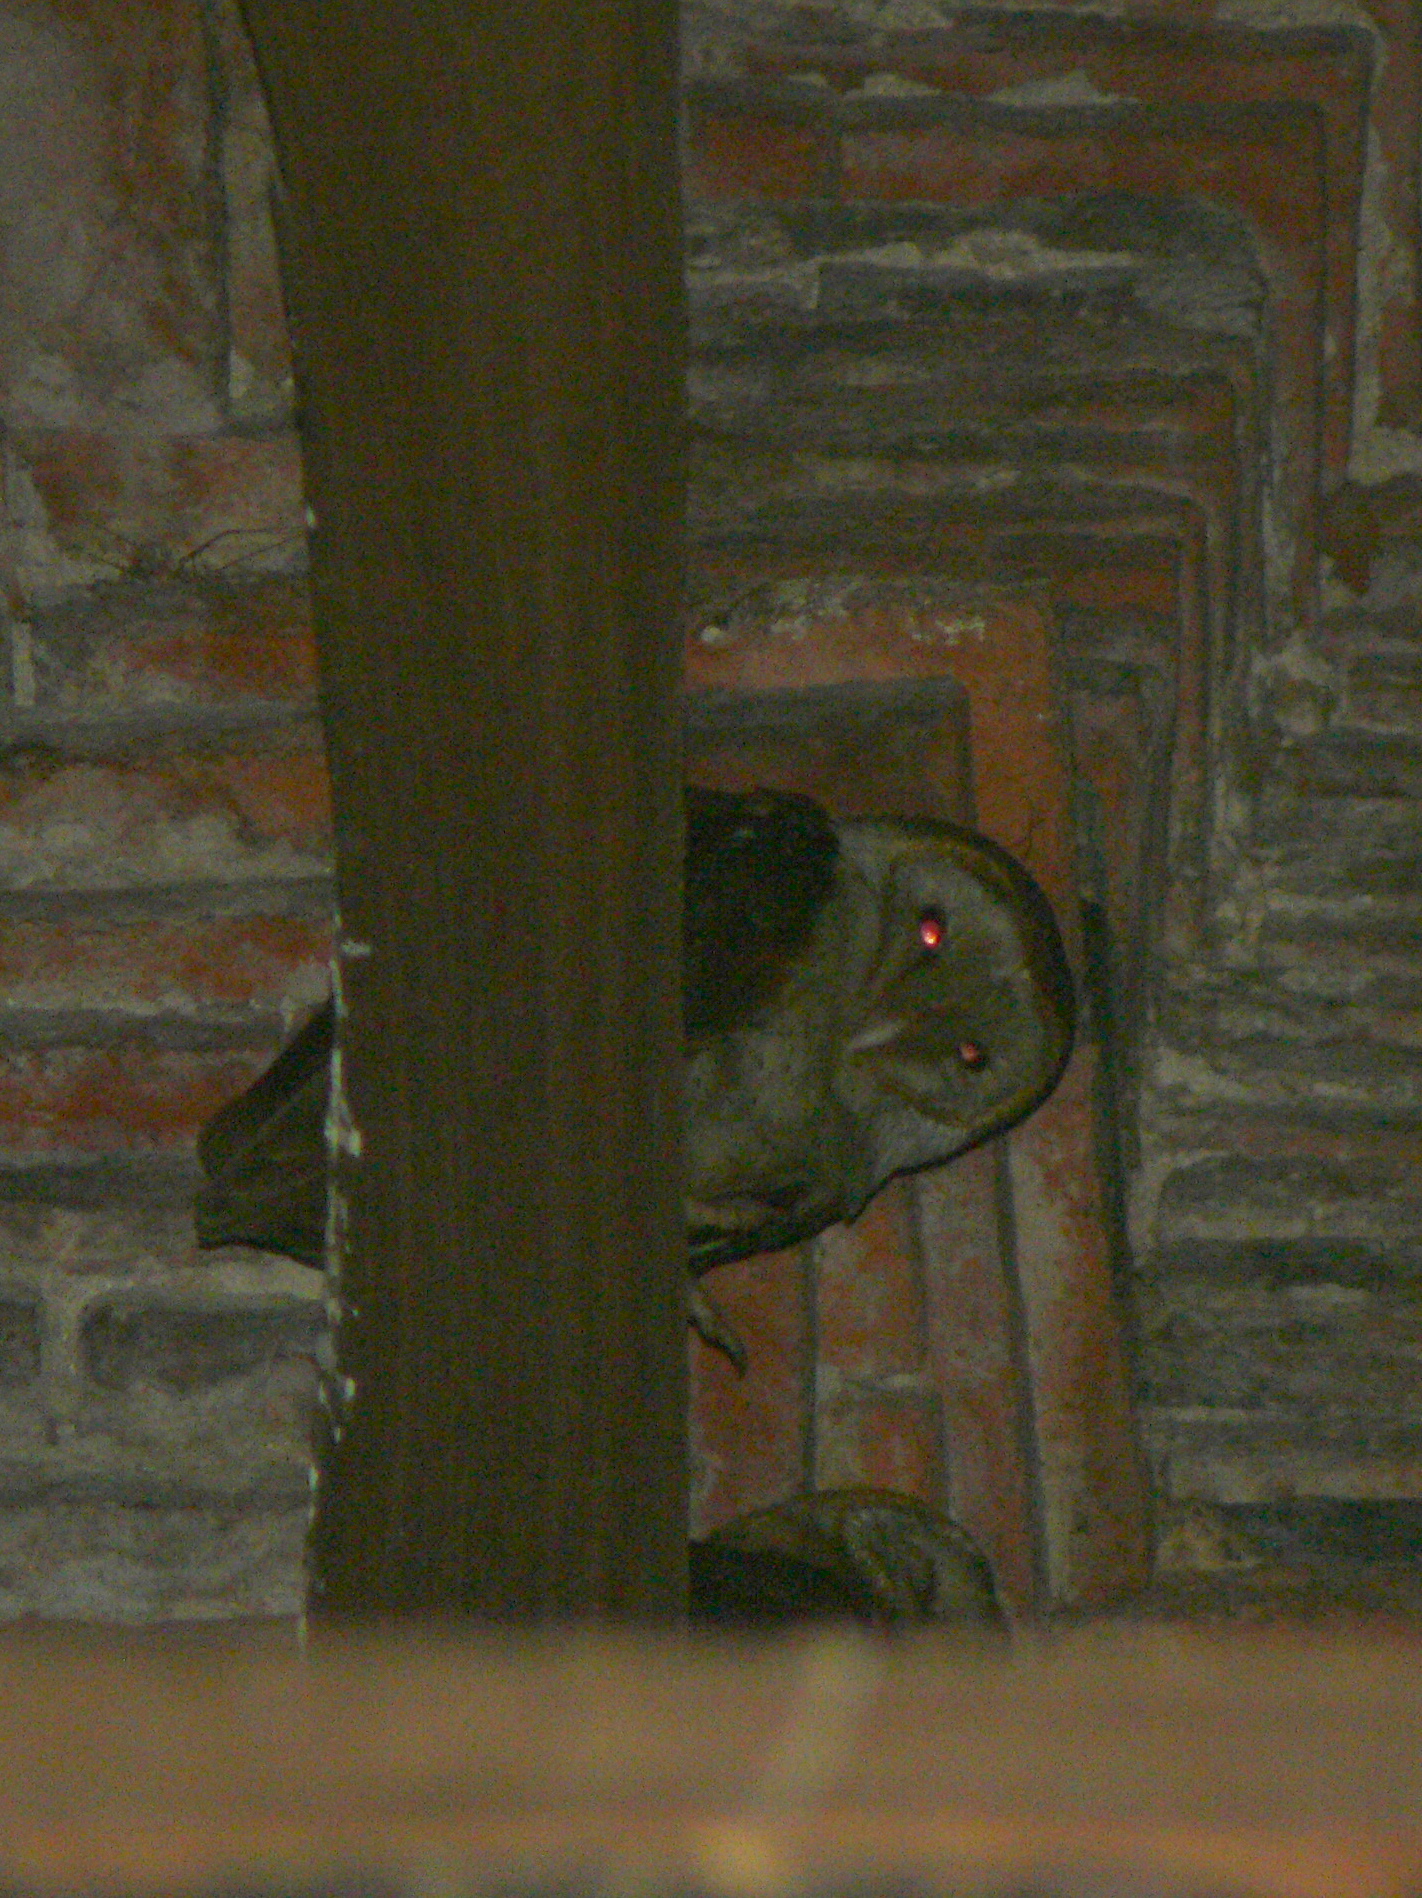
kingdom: Animalia
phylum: Chordata
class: Aves
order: Strigiformes
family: Tytonidae
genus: Tyto
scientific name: Tyto alba
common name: Barn owl
